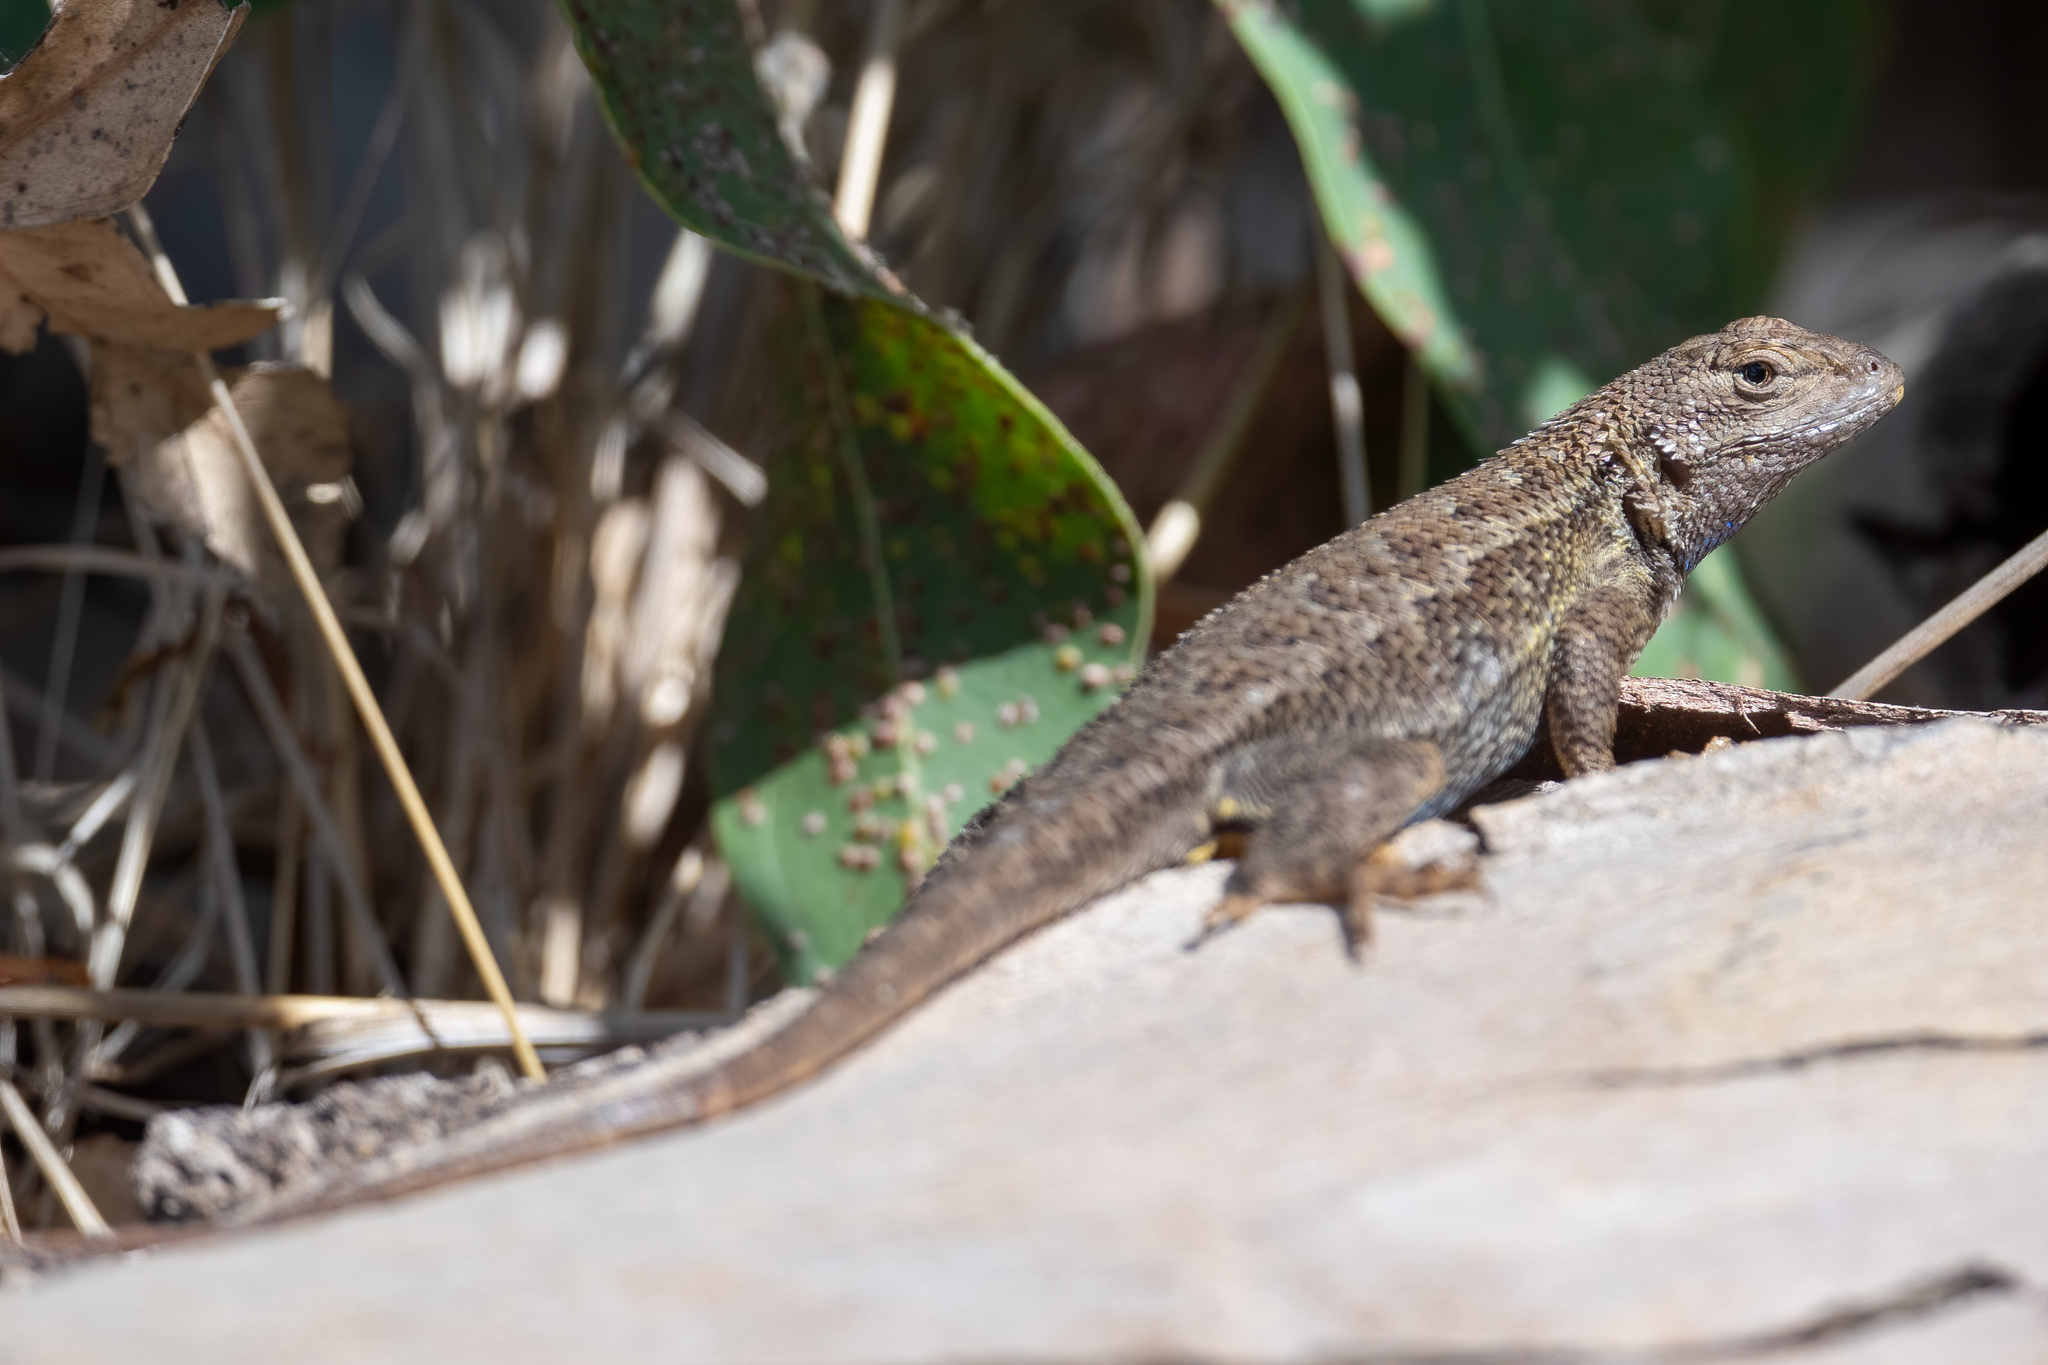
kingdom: Animalia
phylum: Chordata
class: Squamata
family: Phrynosomatidae
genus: Sceloporus
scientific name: Sceloporus occidentalis
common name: Western fence lizard
